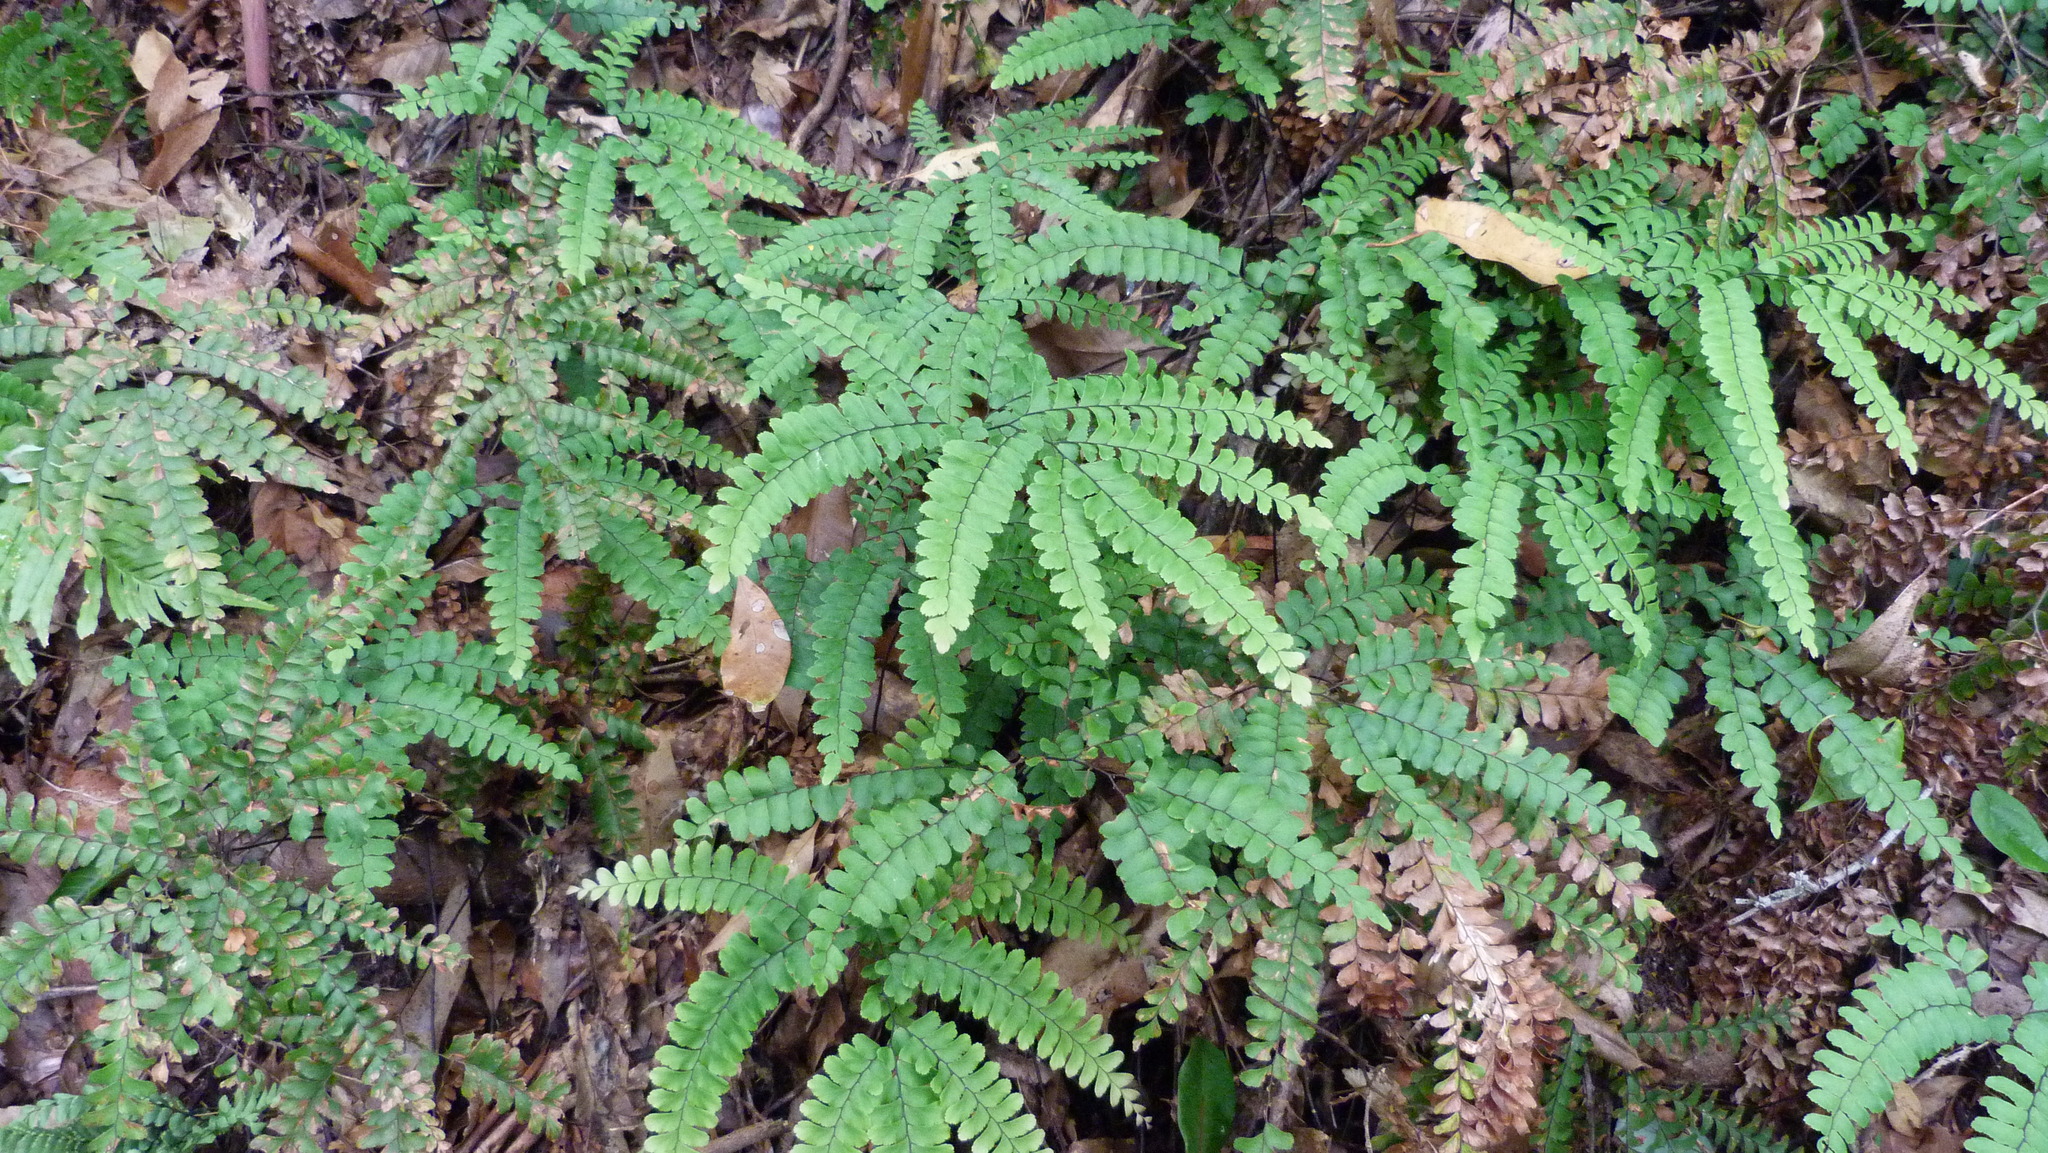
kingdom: Plantae
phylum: Tracheophyta
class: Polypodiopsida
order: Polypodiales
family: Pteridaceae
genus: Adiantum
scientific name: Adiantum hispidulum
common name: Rough maidenhair
